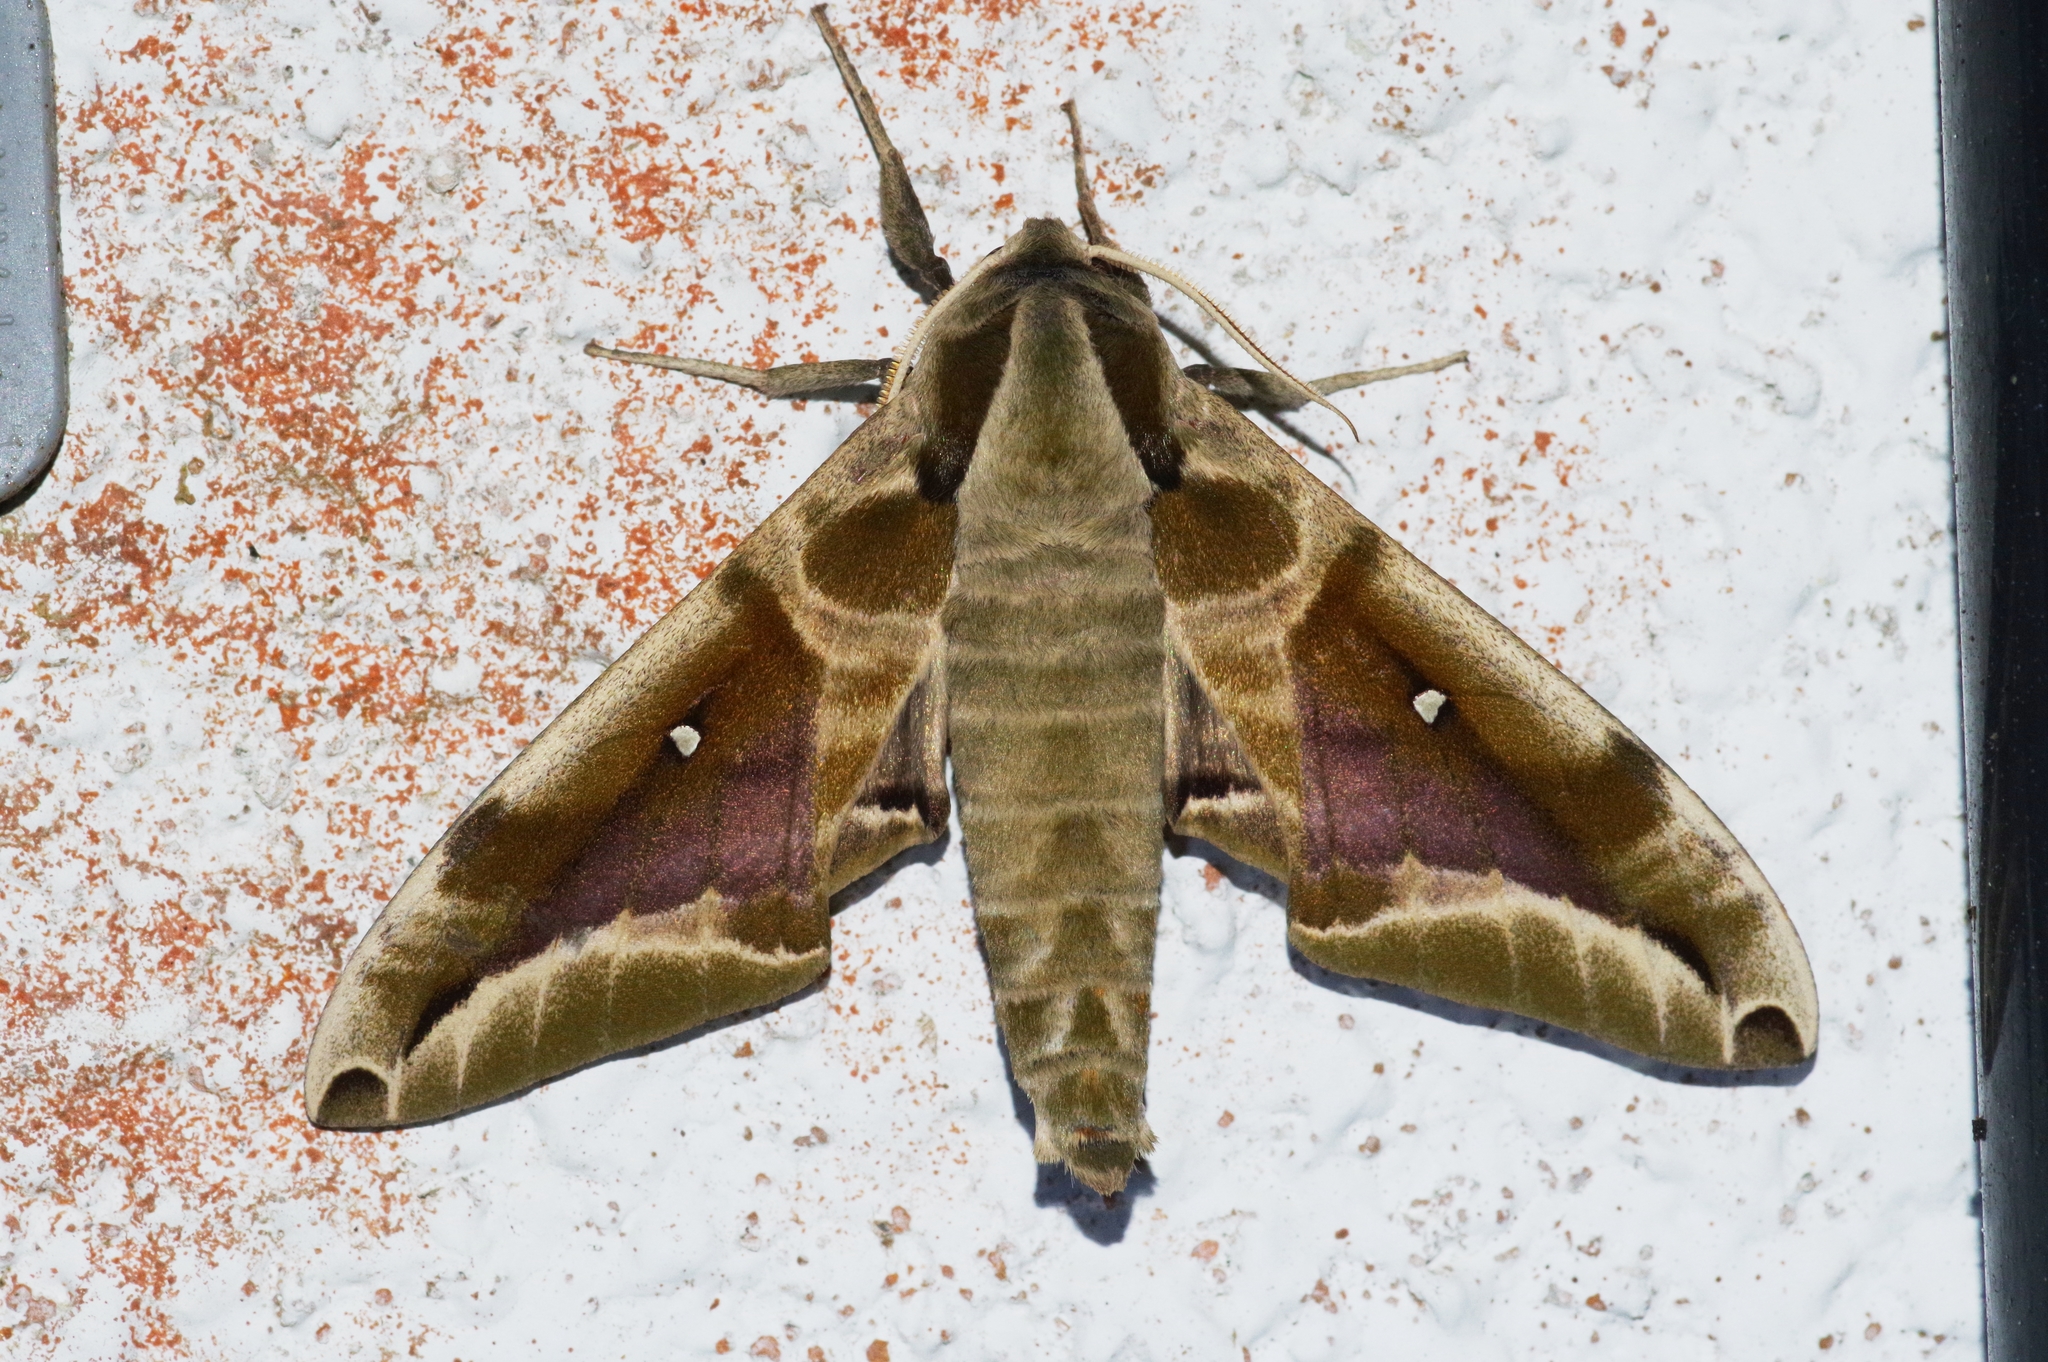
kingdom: Animalia
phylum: Arthropoda
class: Insecta
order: Lepidoptera
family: Sphingidae
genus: Parum
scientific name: Parum colligata
